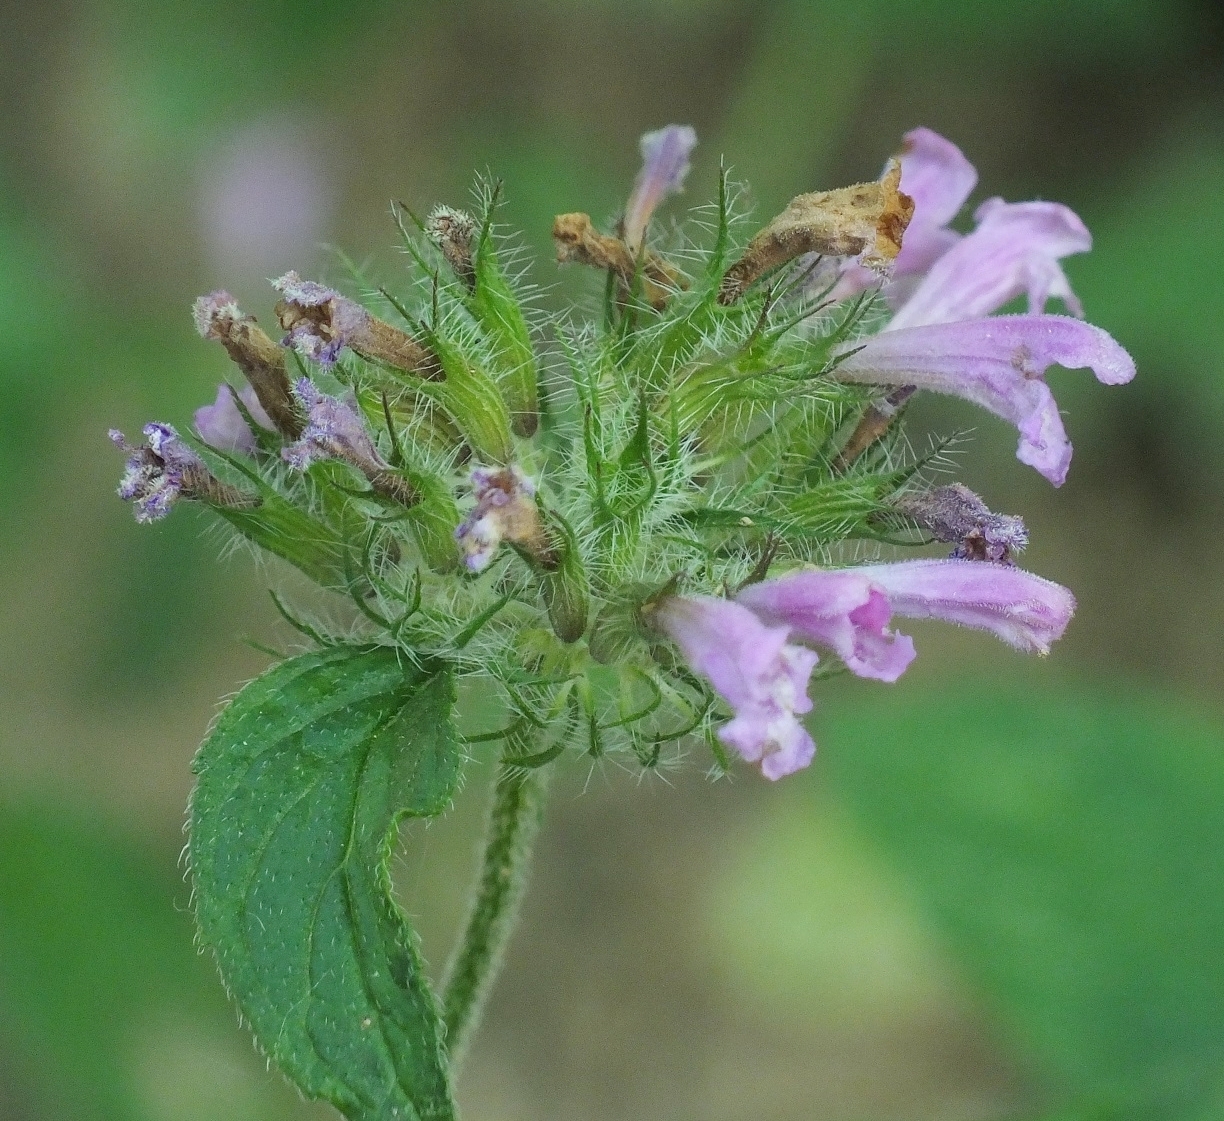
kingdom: Plantae
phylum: Tracheophyta
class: Magnoliopsida
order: Lamiales
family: Lamiaceae
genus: Clinopodium
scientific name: Clinopodium caucasicum
